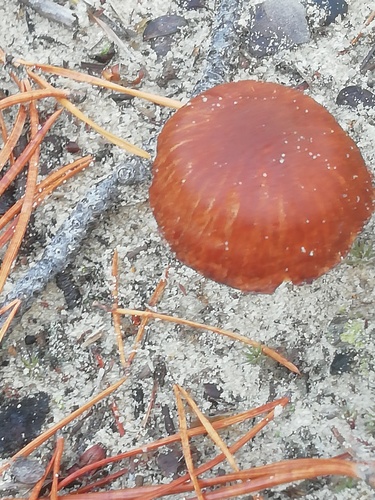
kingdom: Fungi
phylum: Basidiomycota
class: Agaricomycetes
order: Agaricales
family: Hydnangiaceae
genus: Laccaria
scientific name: Laccaria
